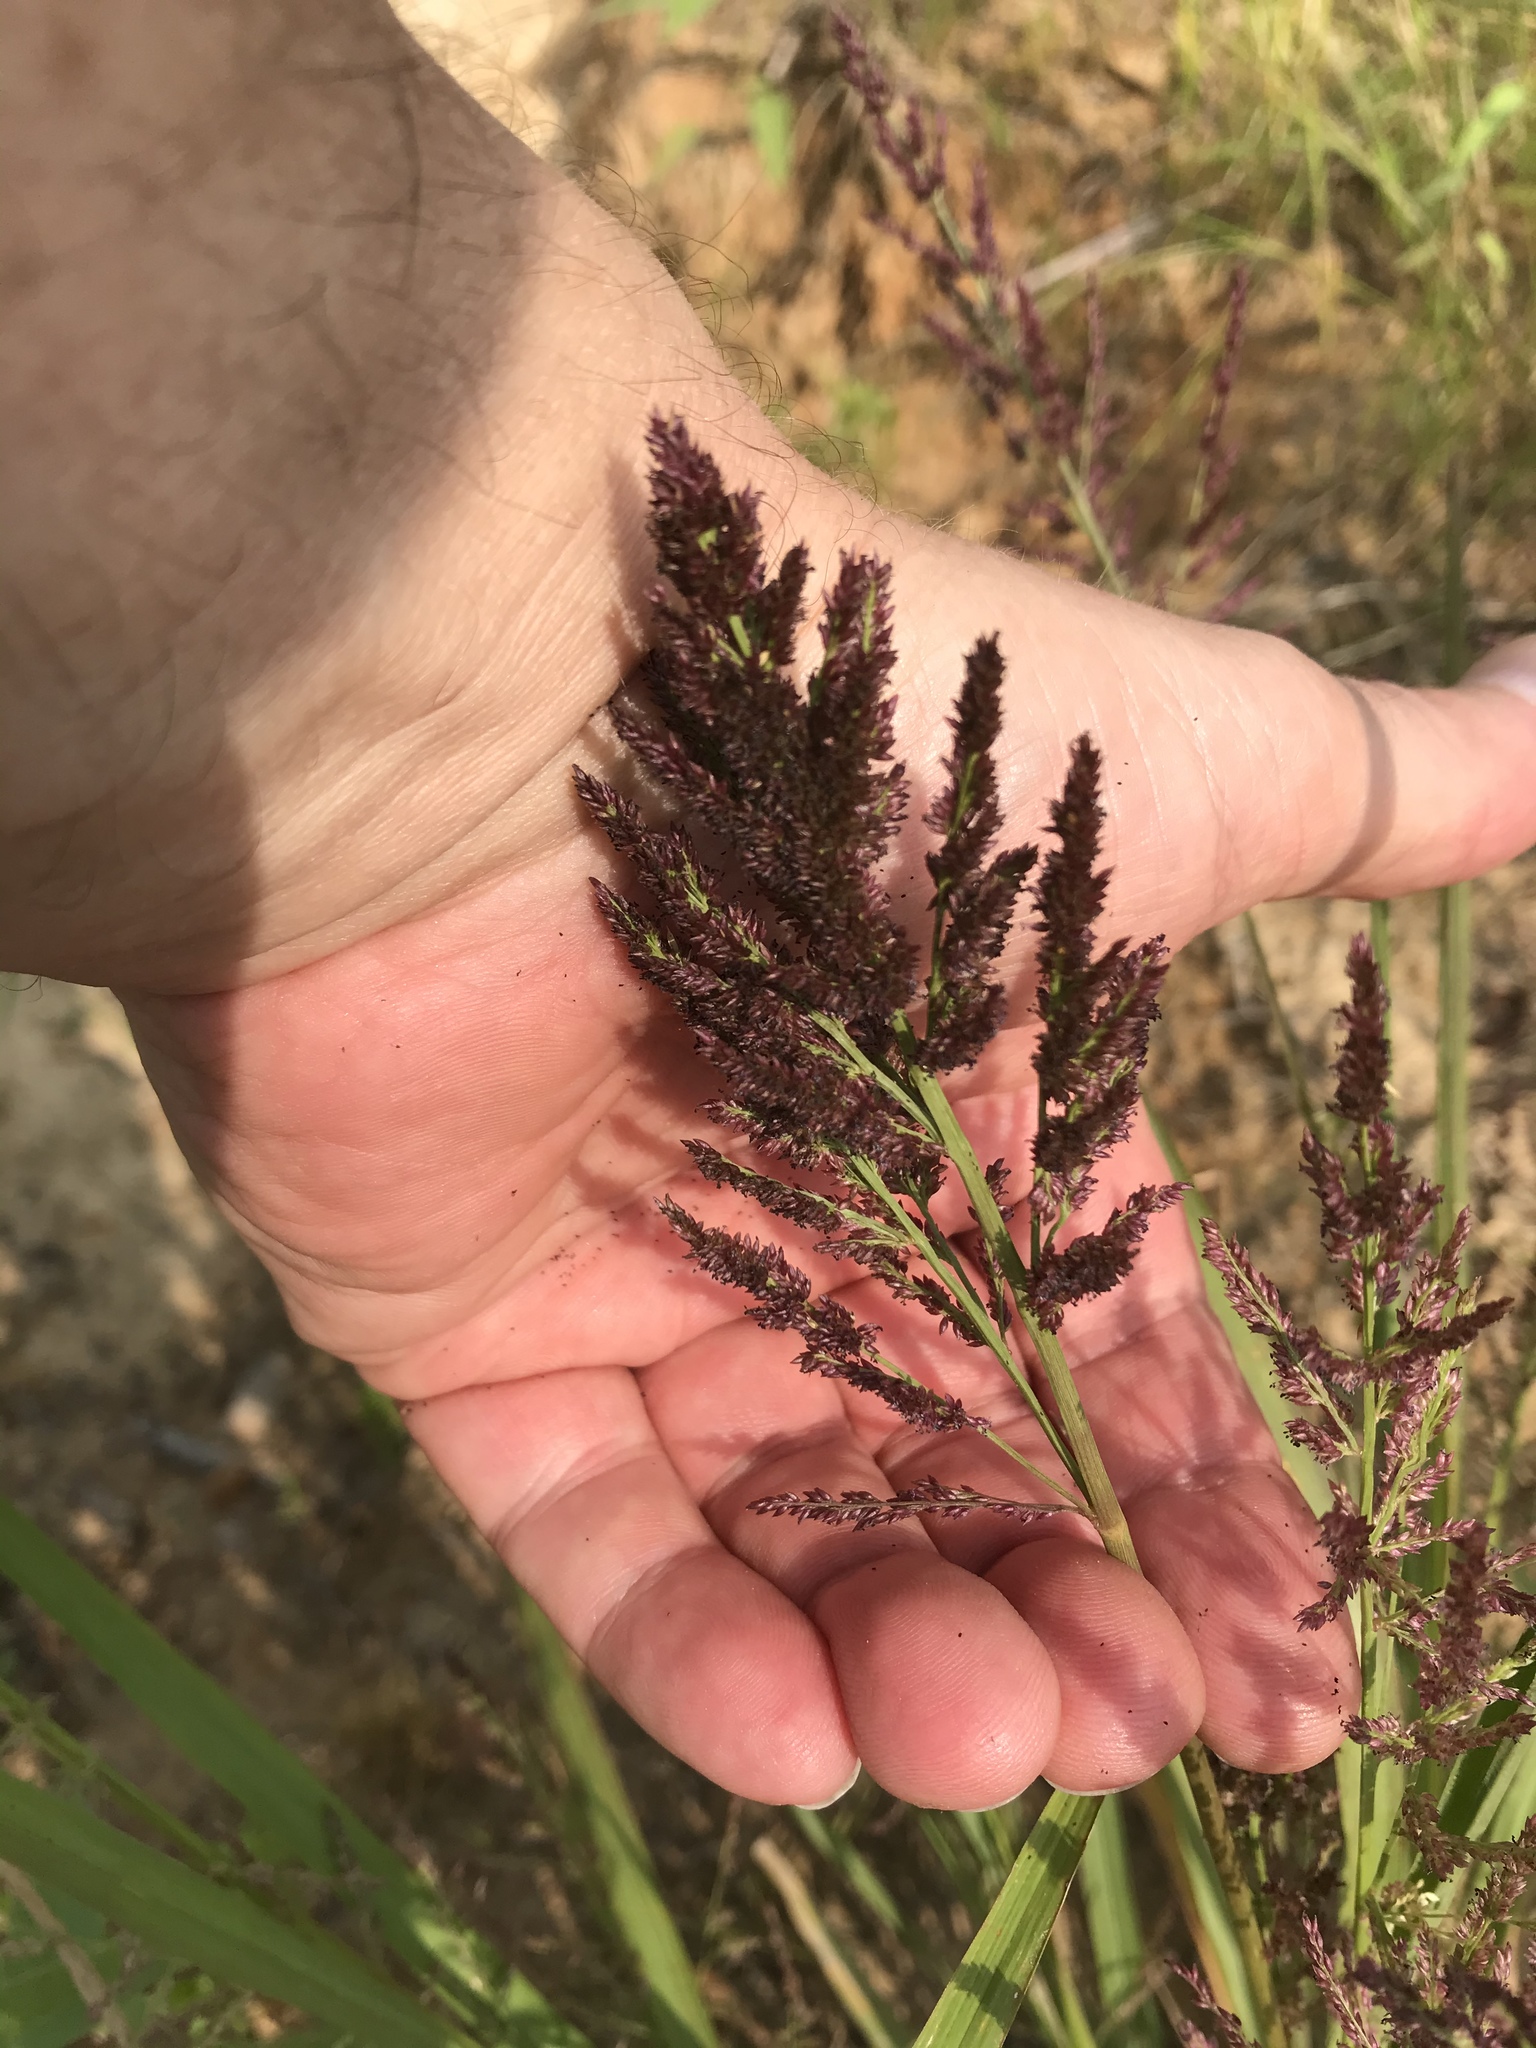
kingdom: Plantae
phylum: Tracheophyta
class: Liliopsida
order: Poales
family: Poaceae
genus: Coleataenia
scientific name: Coleataenia rigidula
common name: Redtop panicgrass
